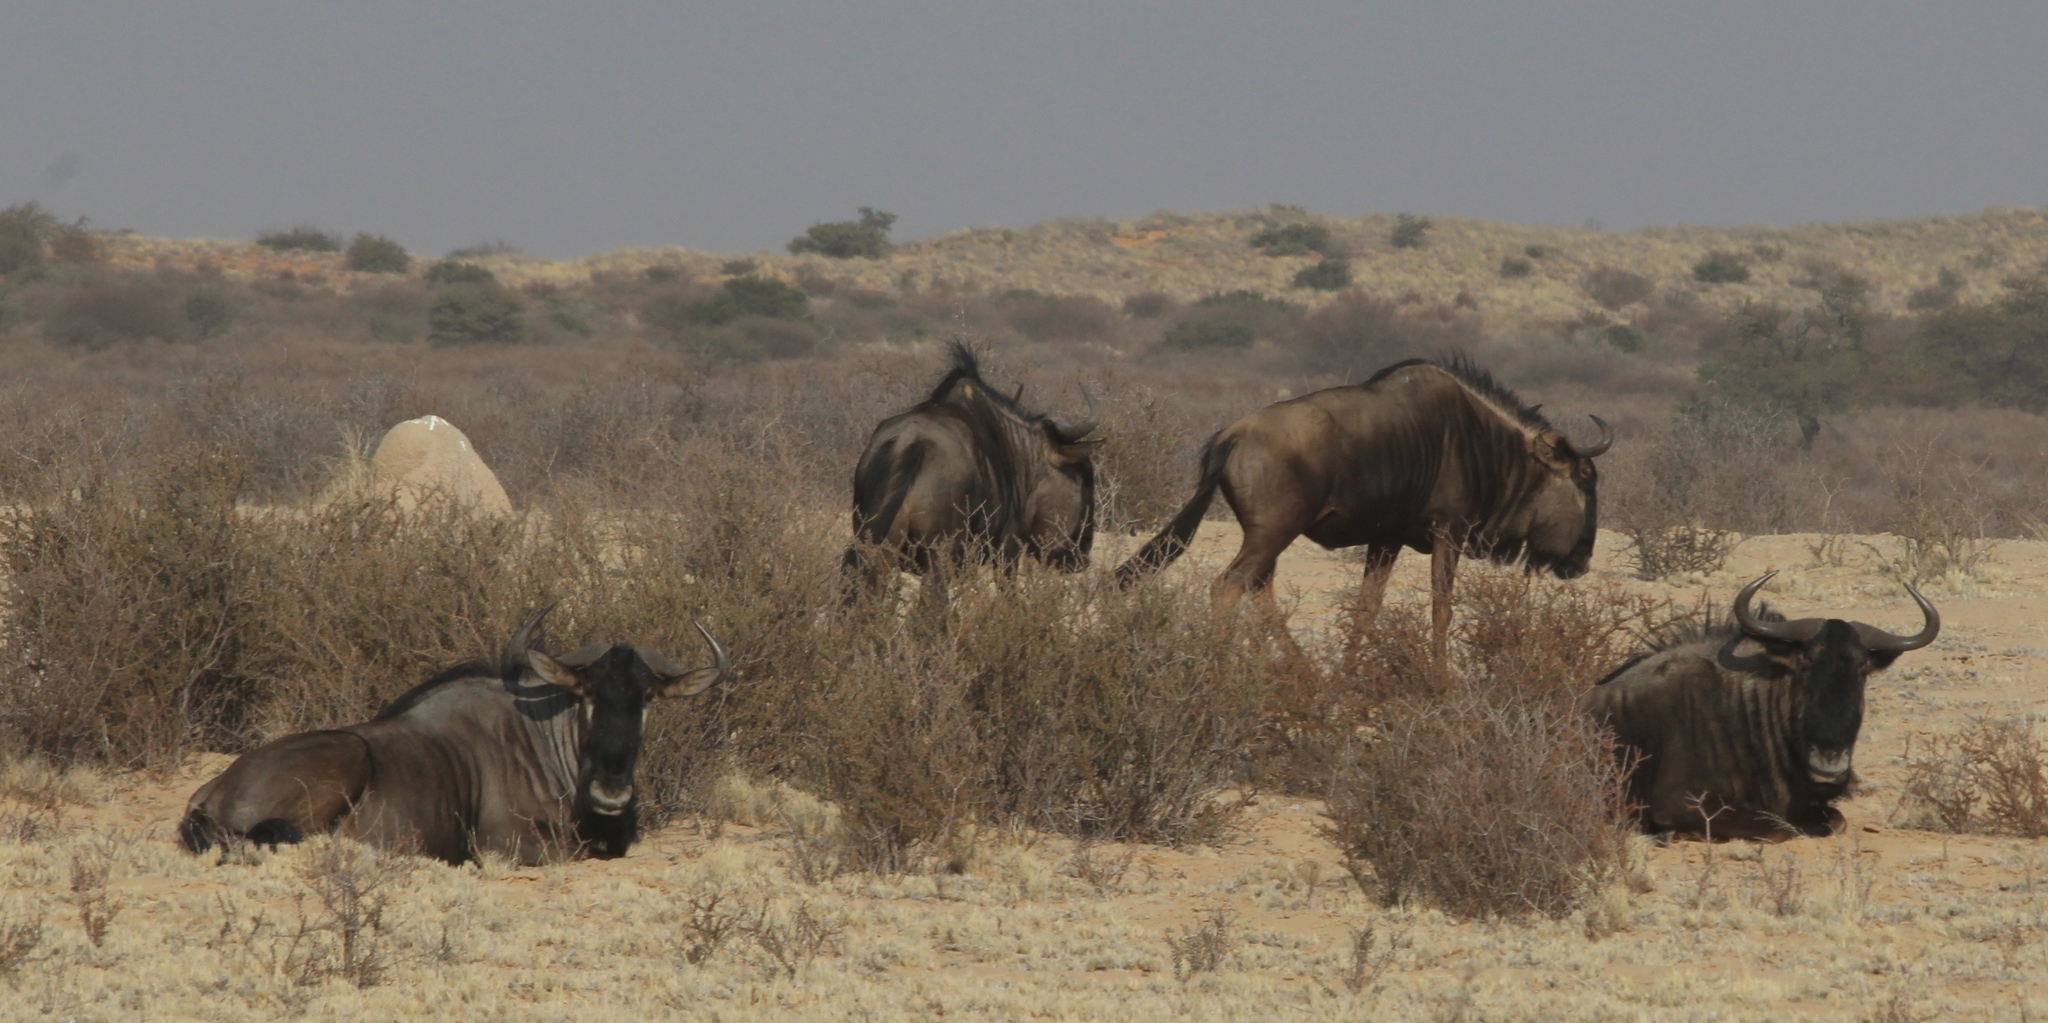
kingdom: Animalia
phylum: Chordata
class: Mammalia
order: Artiodactyla
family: Bovidae
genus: Connochaetes
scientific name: Connochaetes taurinus
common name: Blue wildebeest
